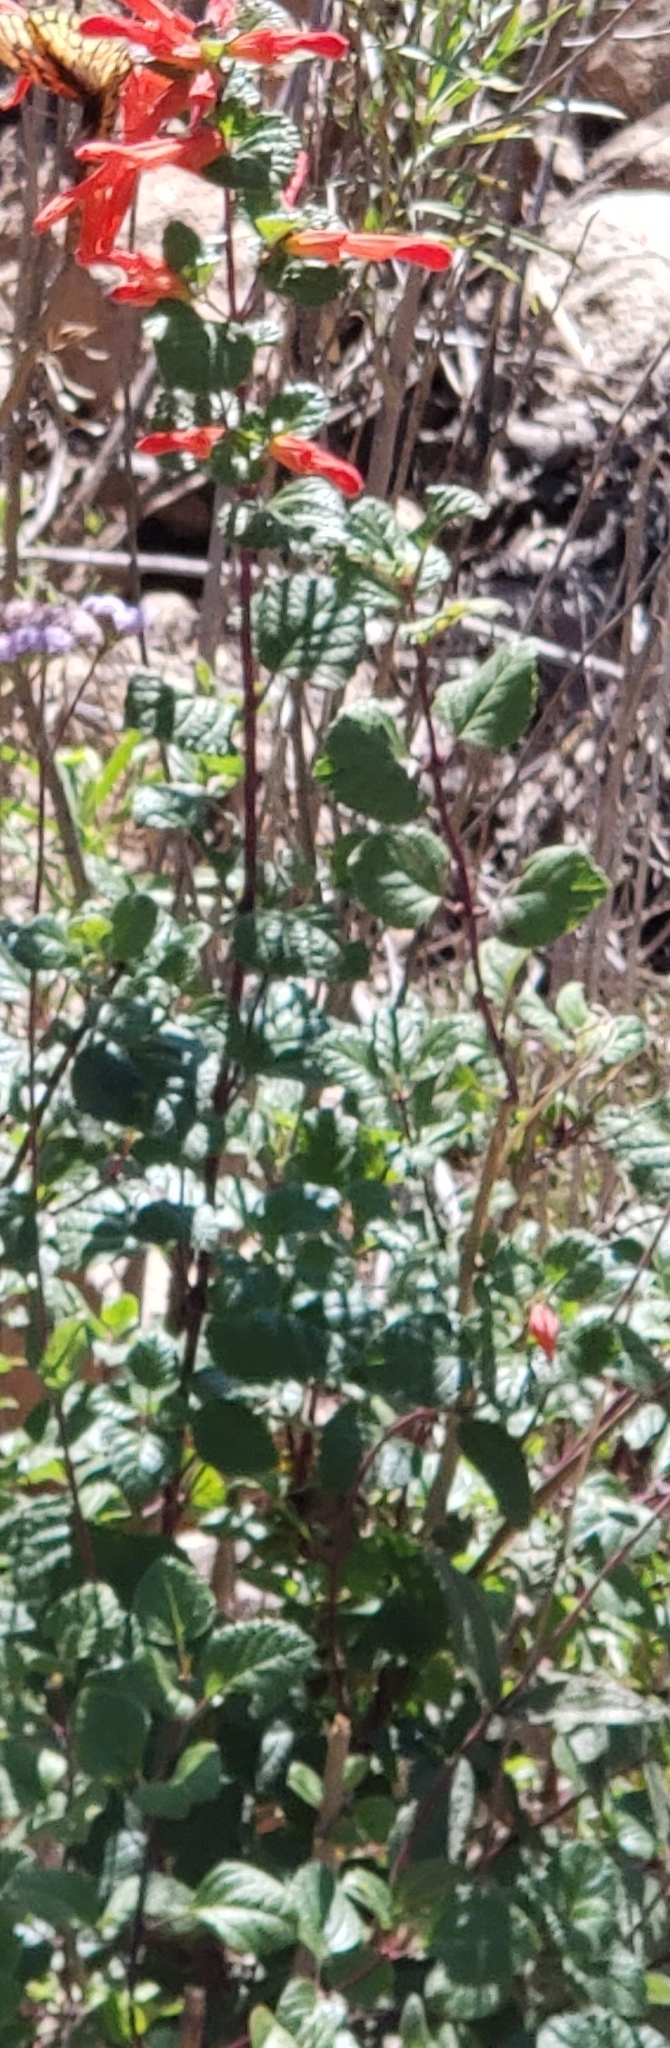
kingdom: Plantae
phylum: Tracheophyta
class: Magnoliopsida
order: Lamiales
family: Lamiaceae
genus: Salvia
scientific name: Salvia regla
